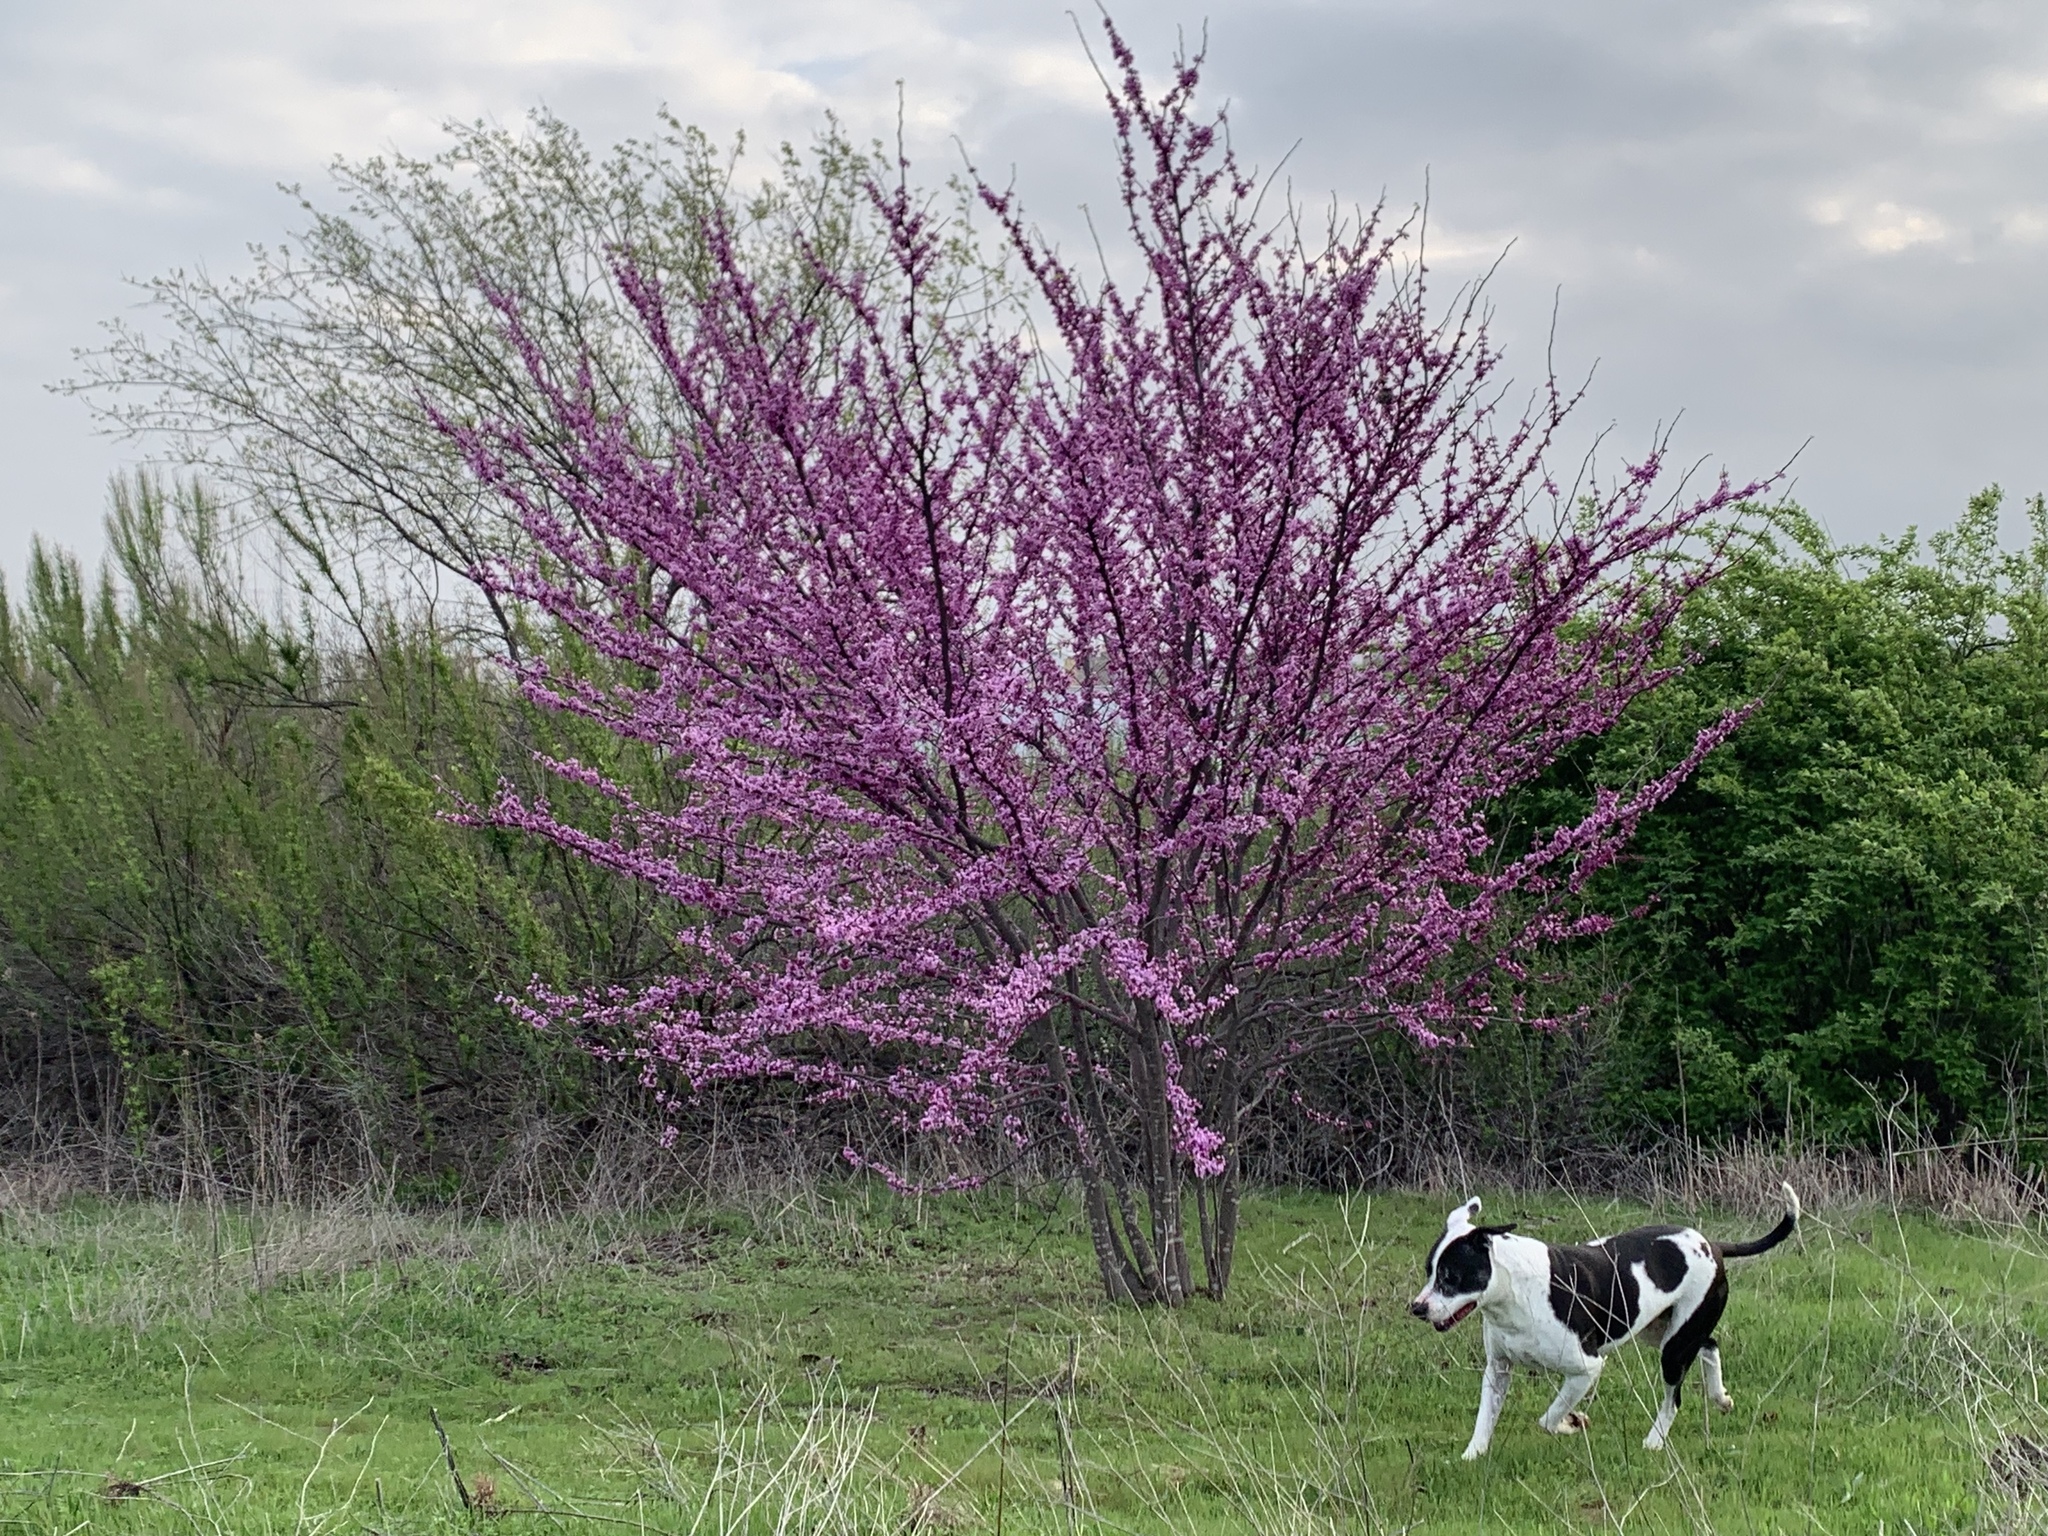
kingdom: Plantae
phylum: Tracheophyta
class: Magnoliopsida
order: Fabales
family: Fabaceae
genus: Cercis
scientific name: Cercis canadensis
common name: Eastern redbud
